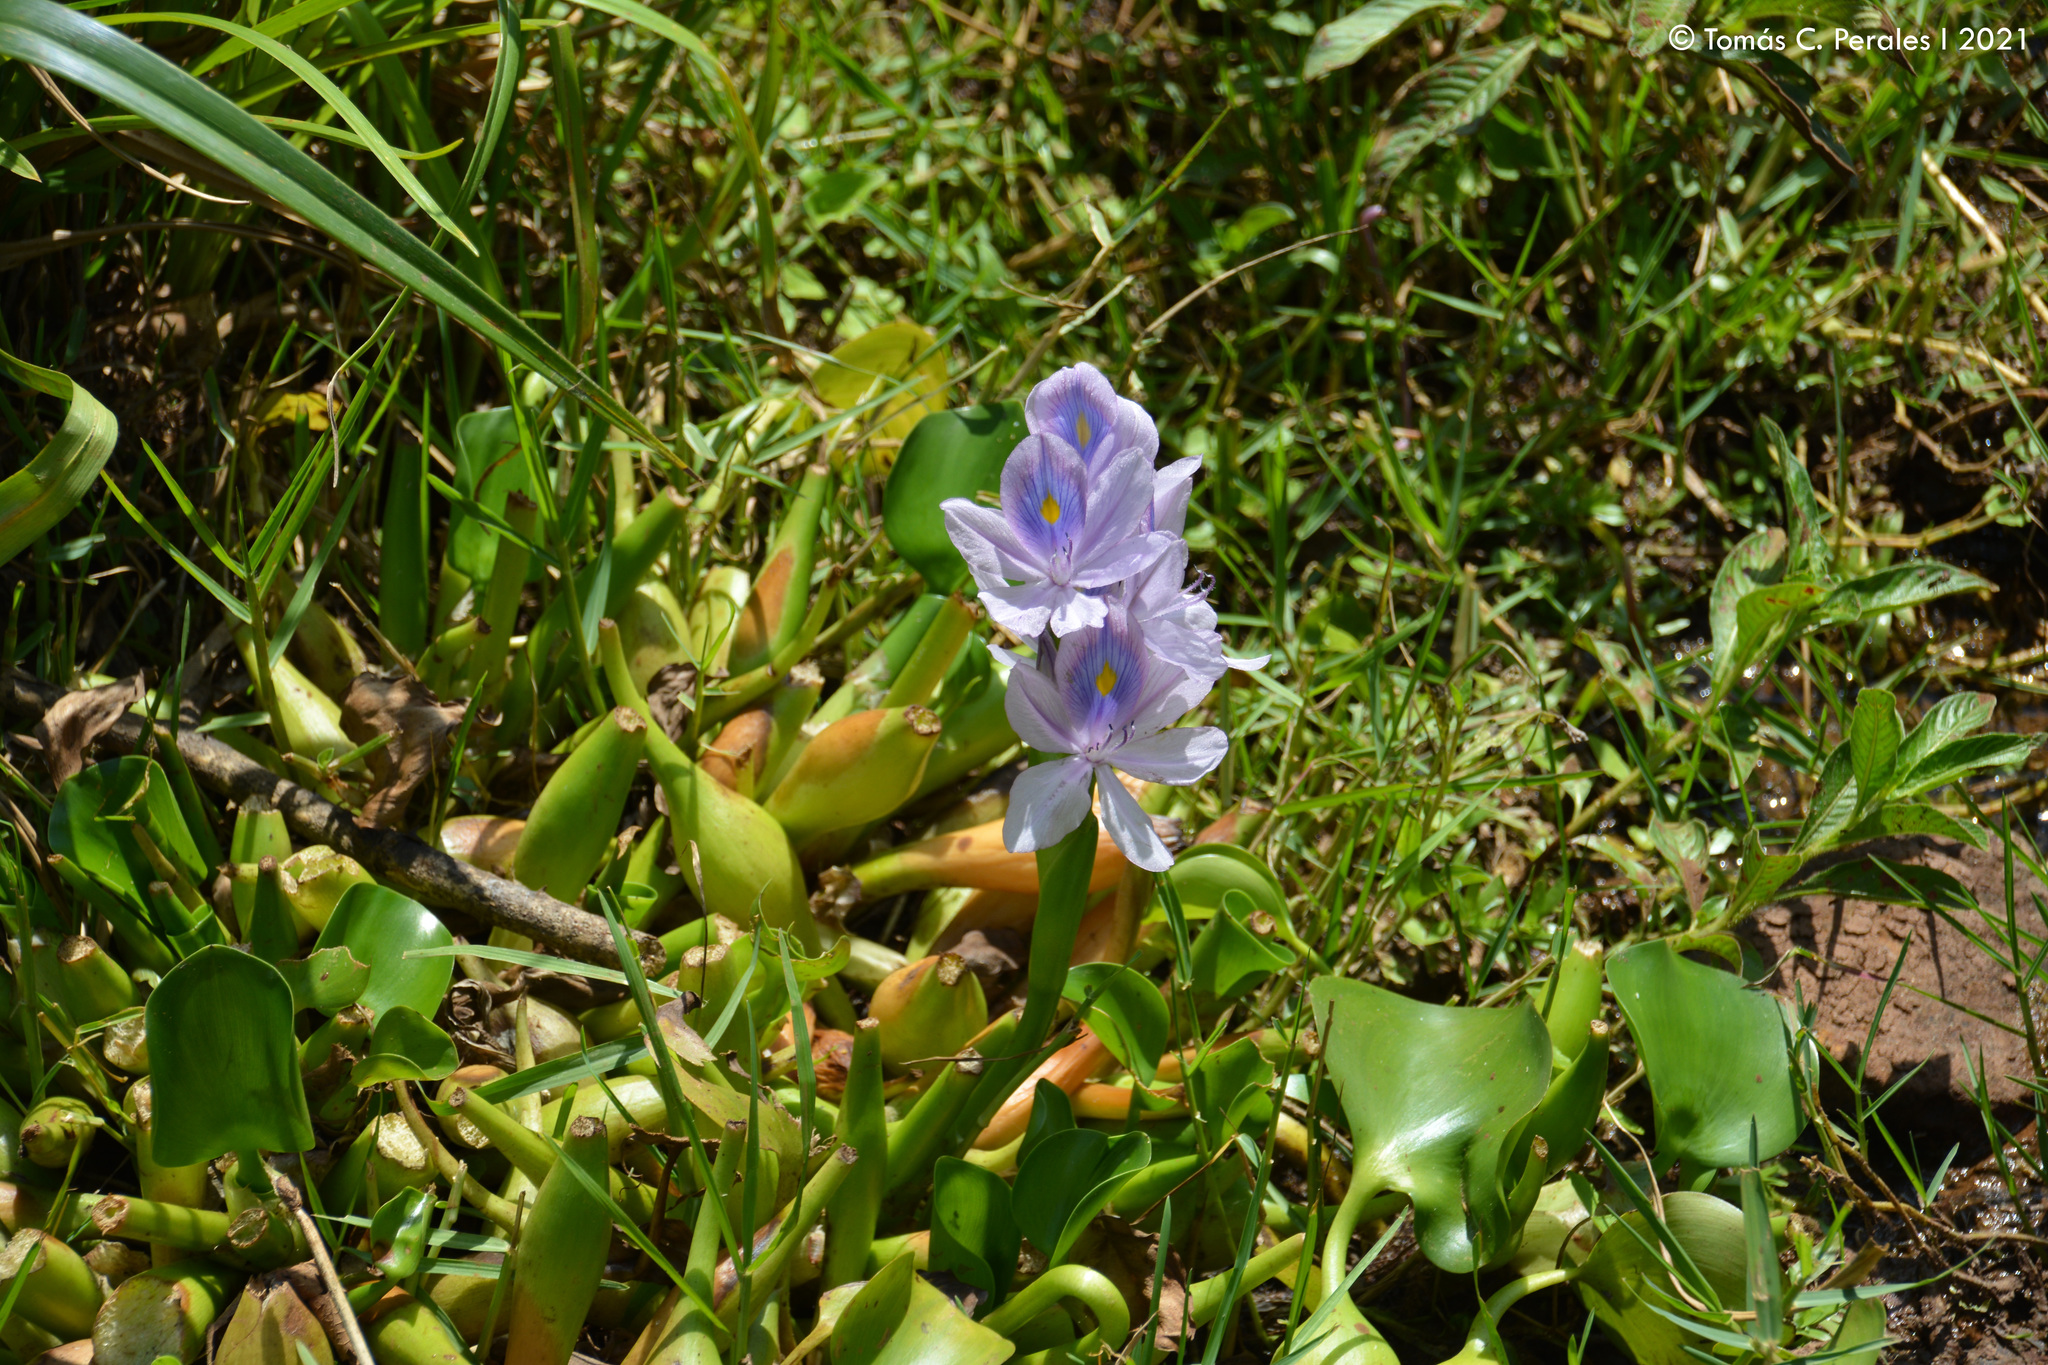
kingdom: Plantae
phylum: Tracheophyta
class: Liliopsida
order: Commelinales
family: Pontederiaceae
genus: Pontederia
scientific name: Pontederia crassipes
